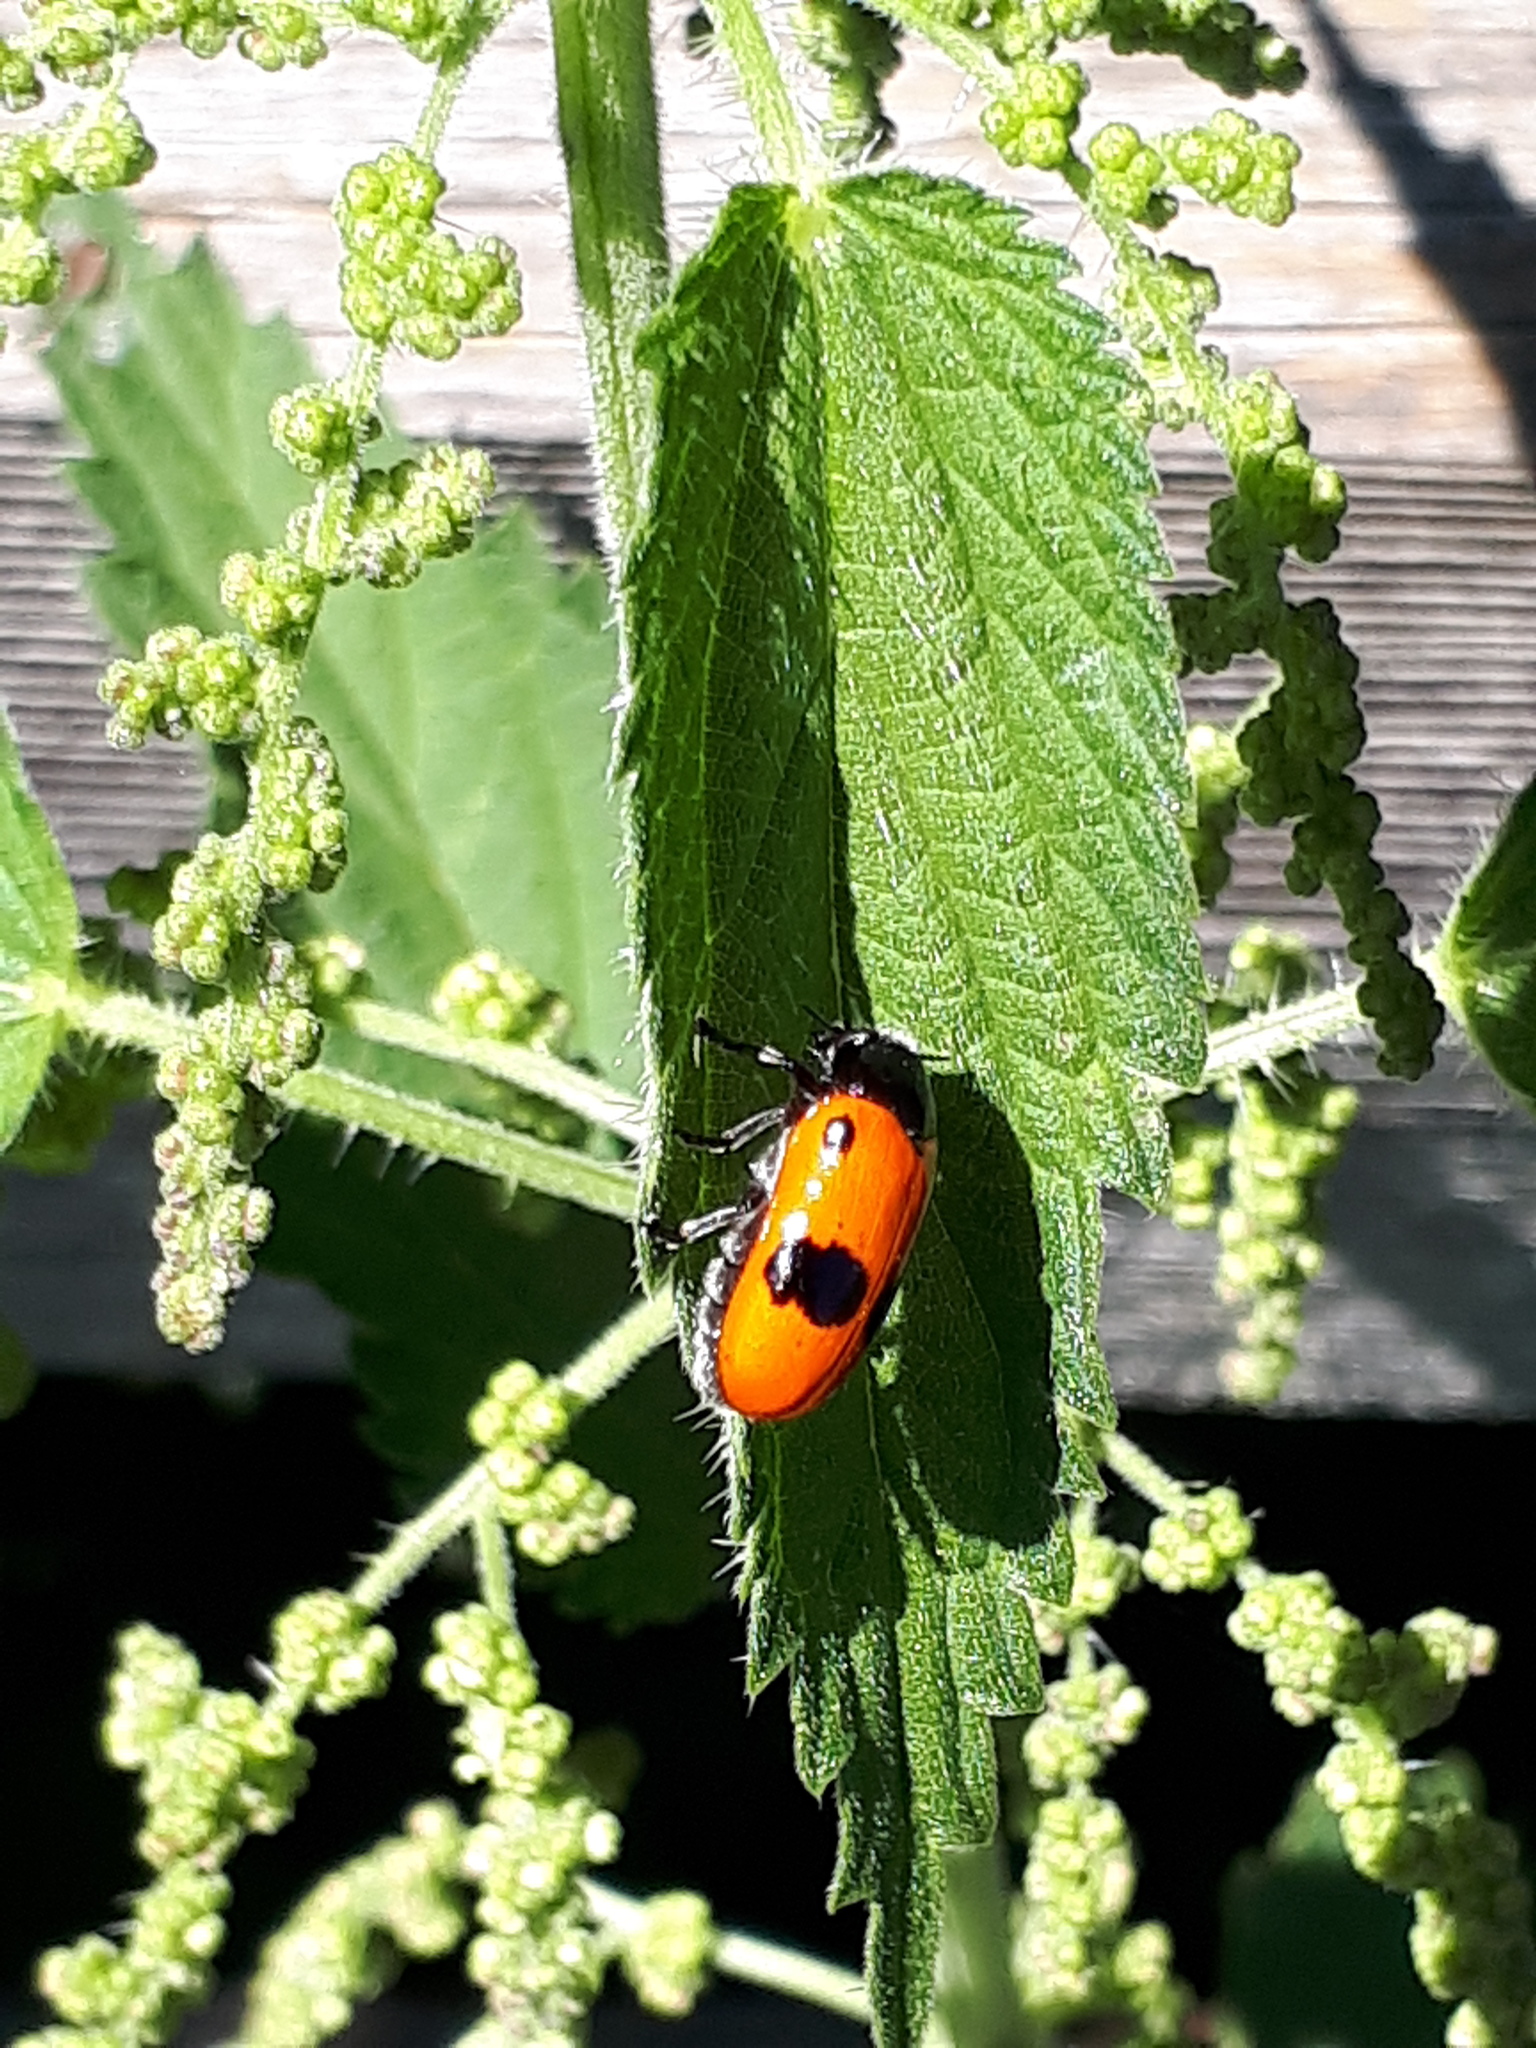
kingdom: Animalia
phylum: Arthropoda
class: Insecta
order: Coleoptera
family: Chrysomelidae
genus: Clytra
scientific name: Clytra laeviuscula
